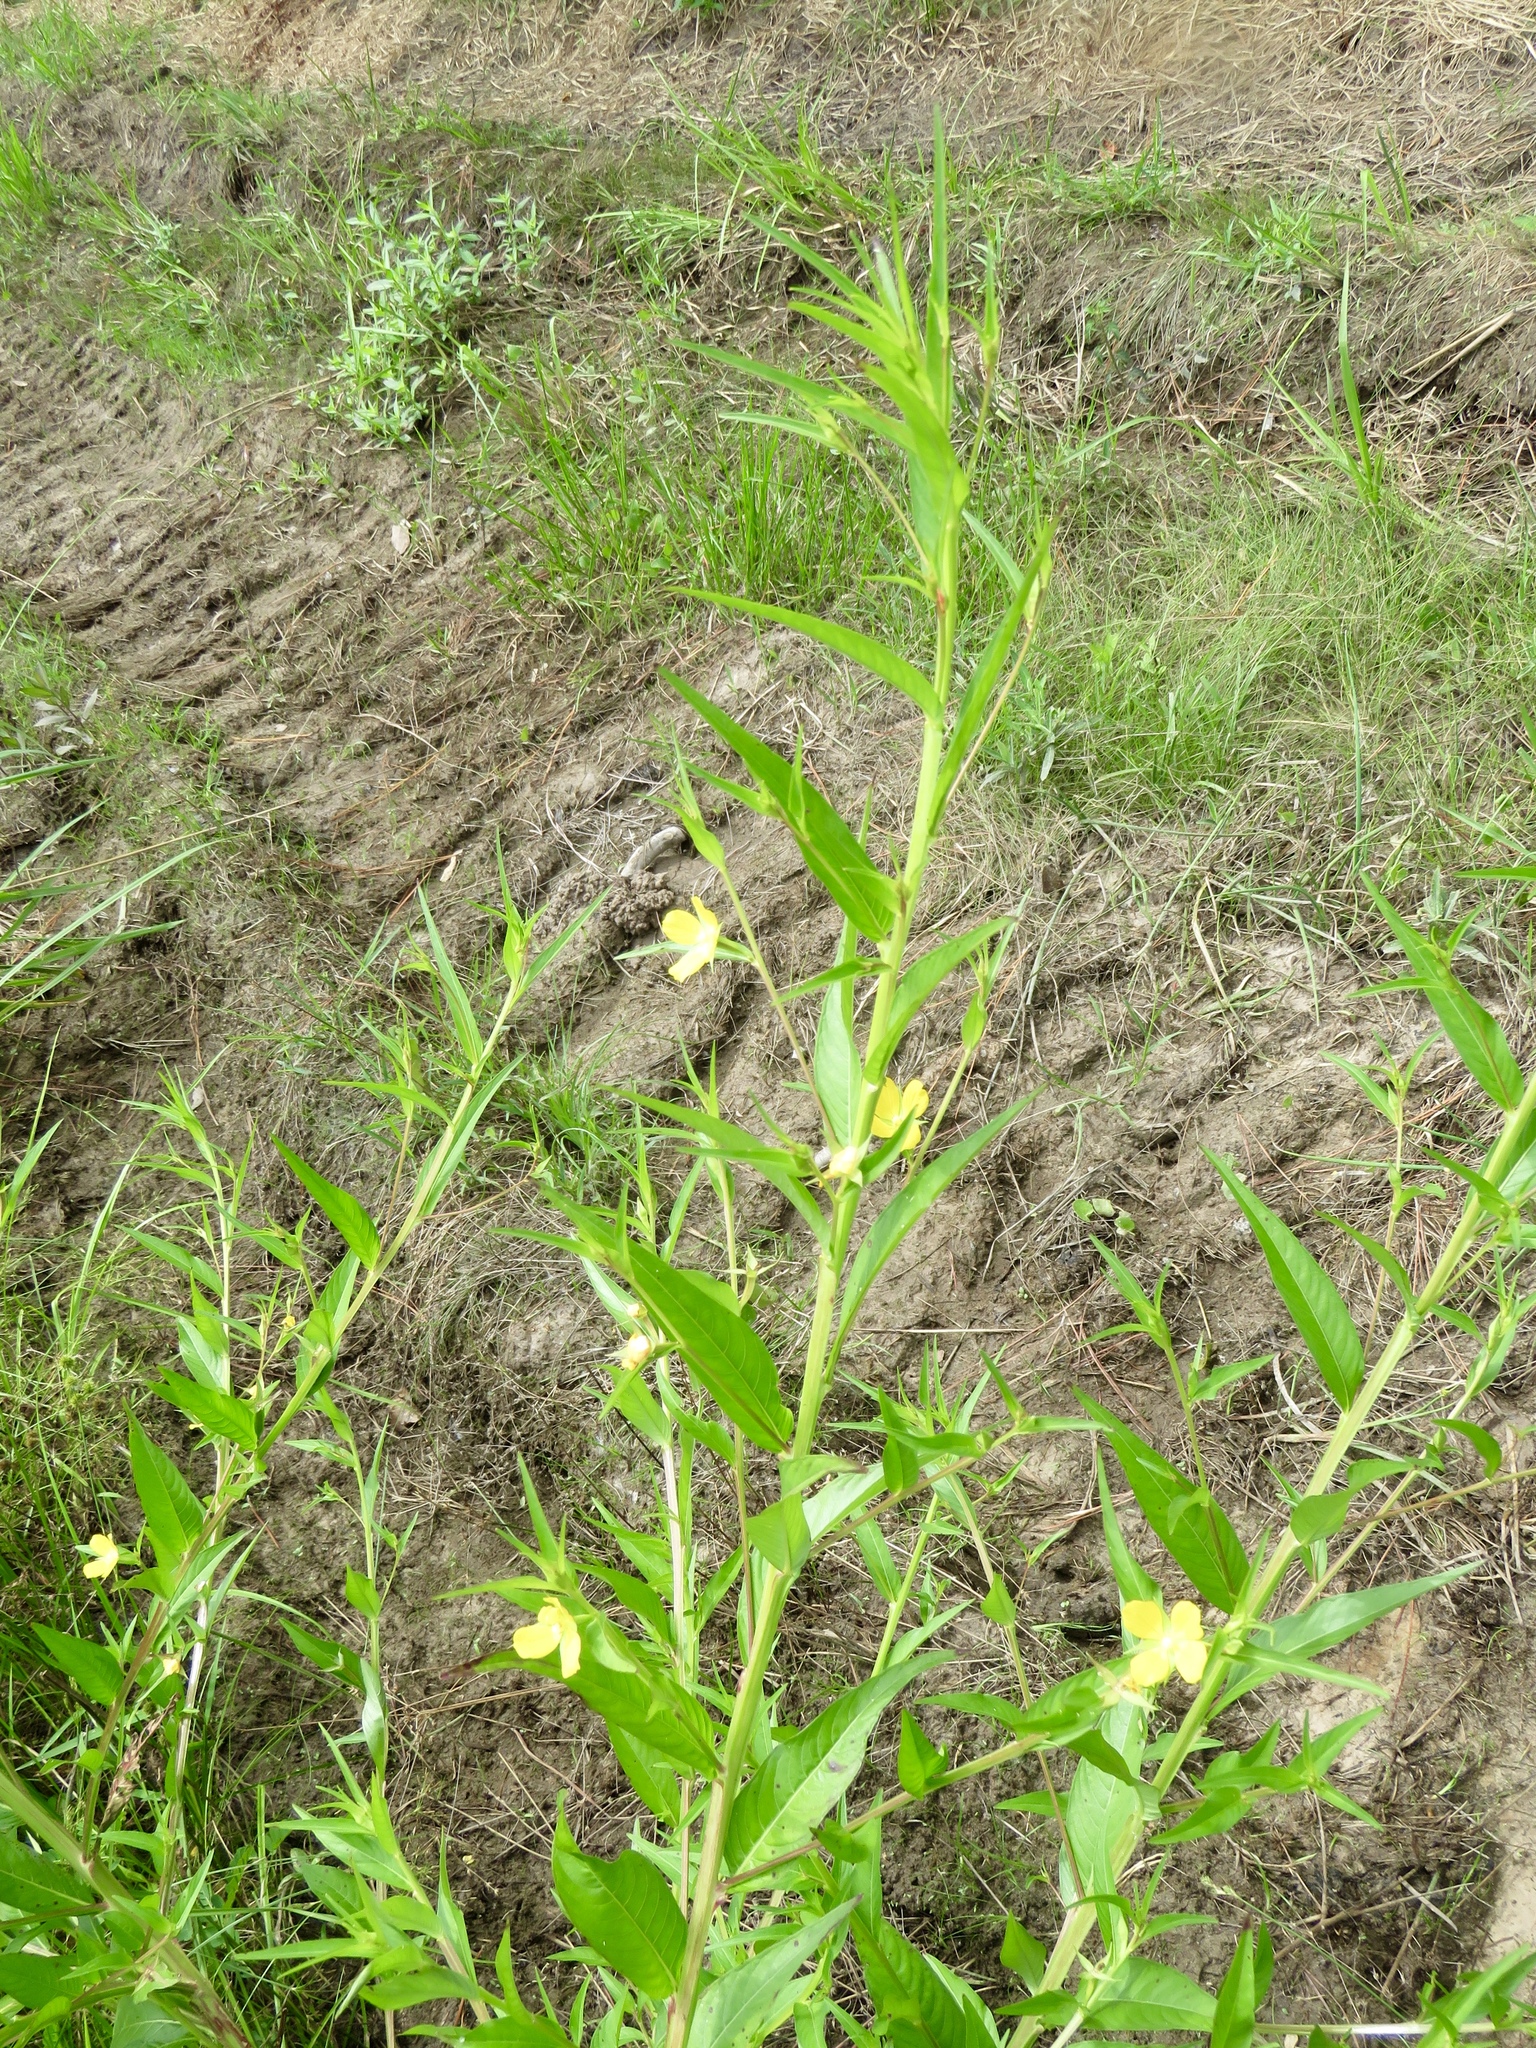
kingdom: Plantae
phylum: Tracheophyta
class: Magnoliopsida
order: Myrtales
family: Onagraceae
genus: Ludwigia
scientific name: Ludwigia decurrens
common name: Winged water-primrose
